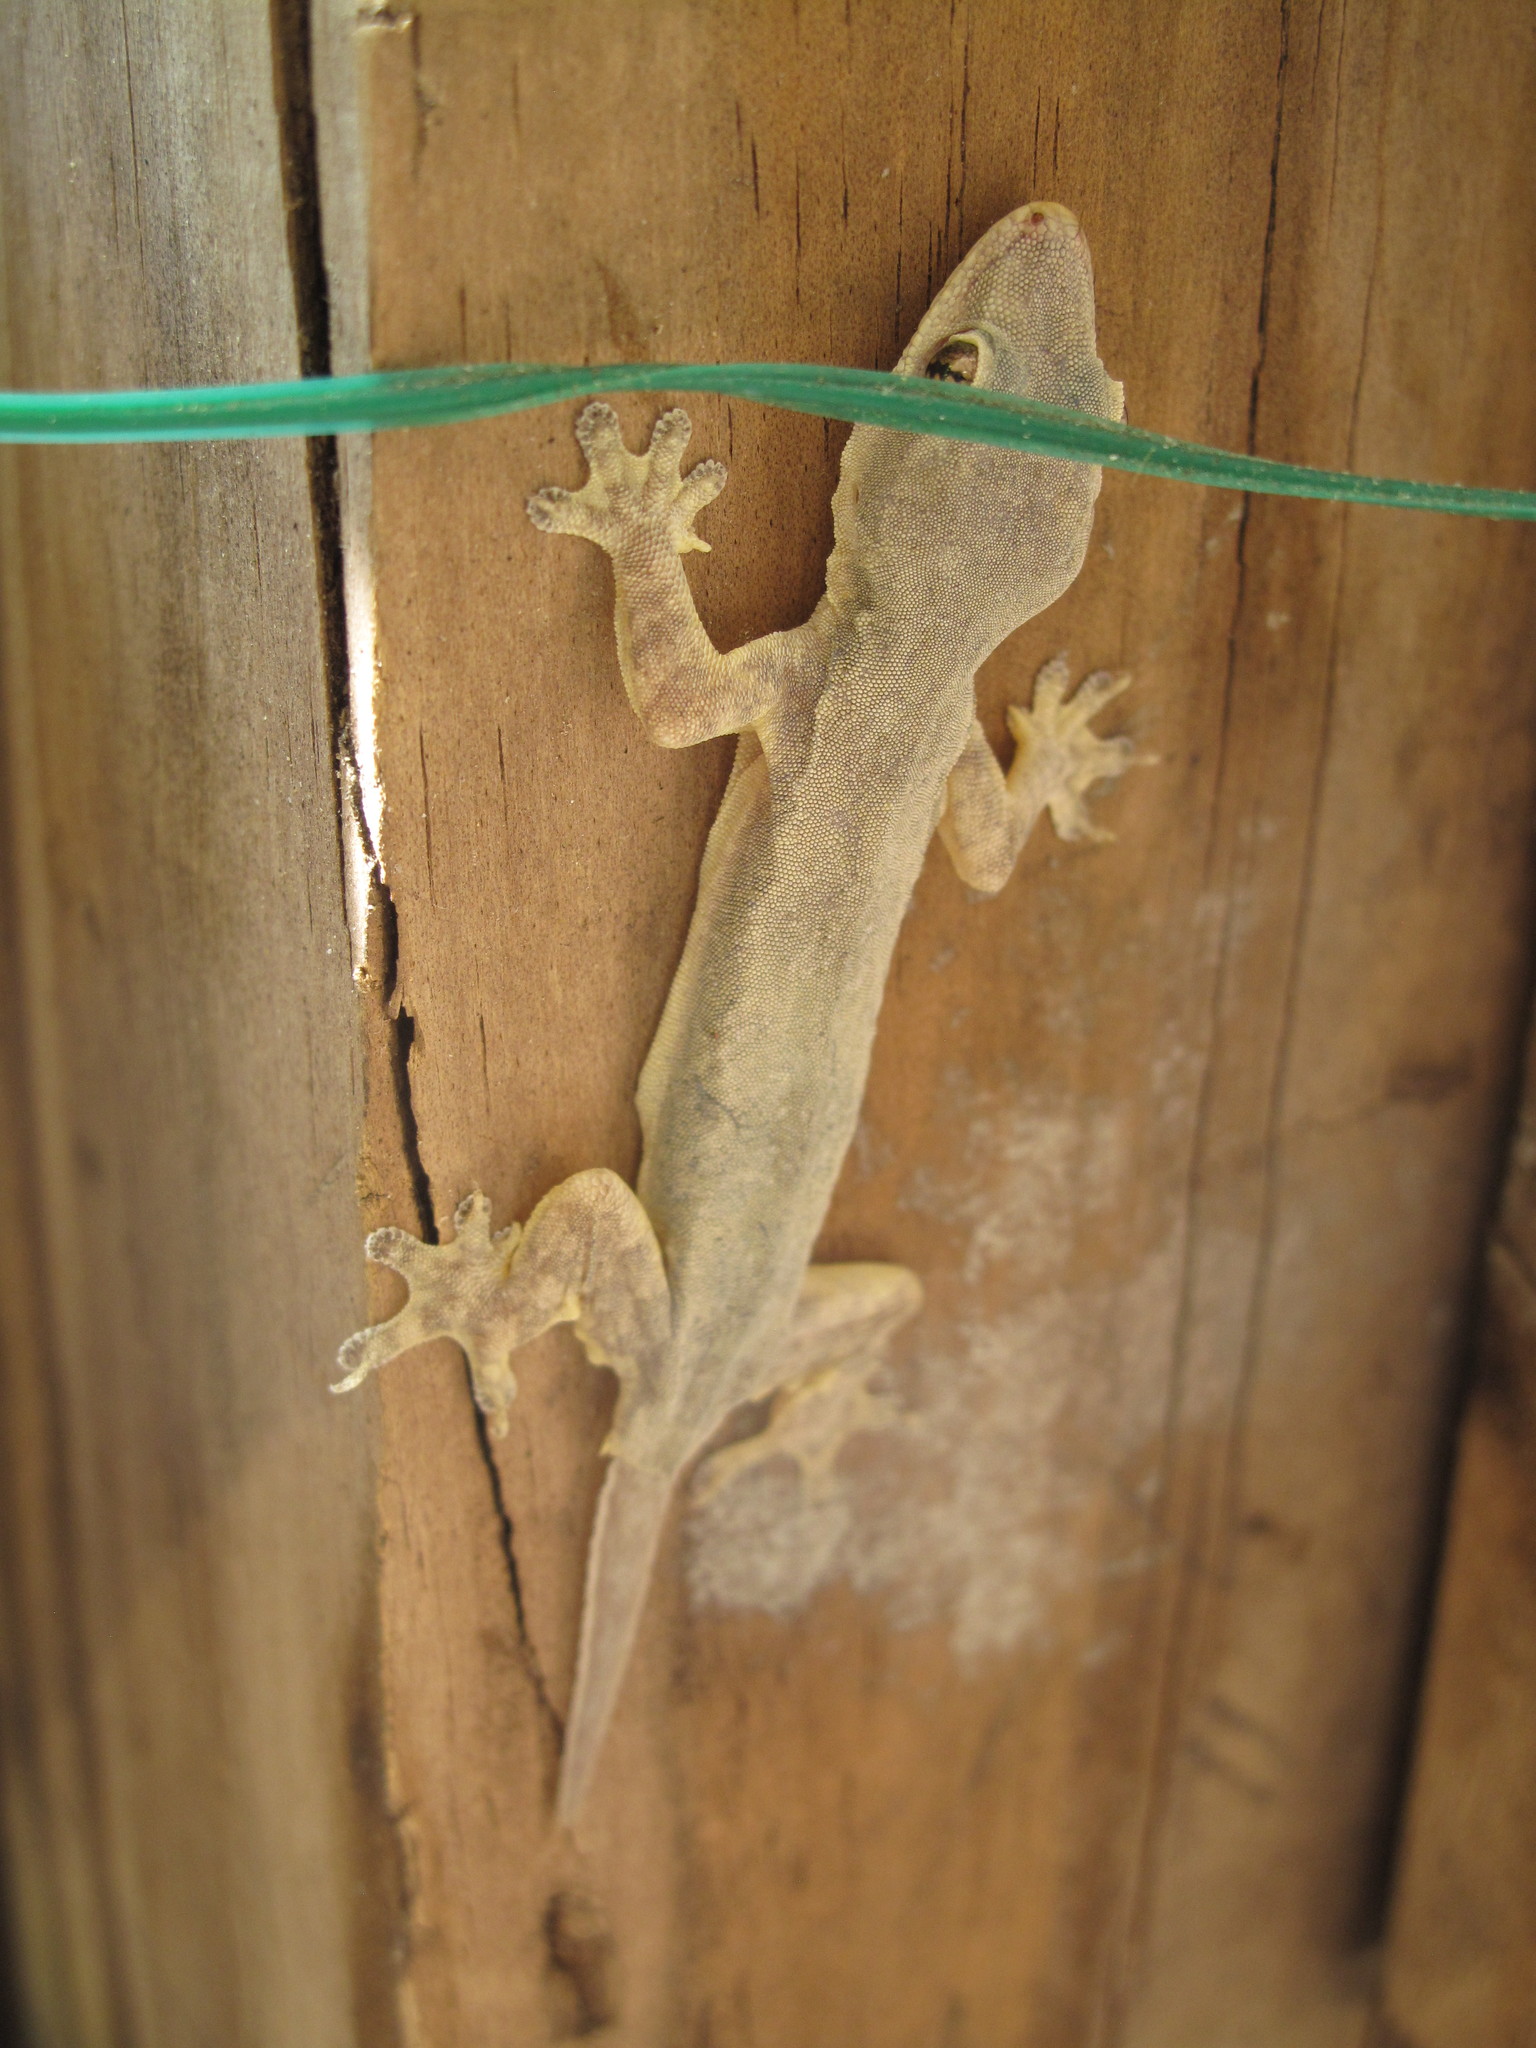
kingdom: Animalia
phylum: Chordata
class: Squamata
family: Gekkonidae
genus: Hemidactylus
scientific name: Hemidactylus platyurus
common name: Flat-tailed house gecko
